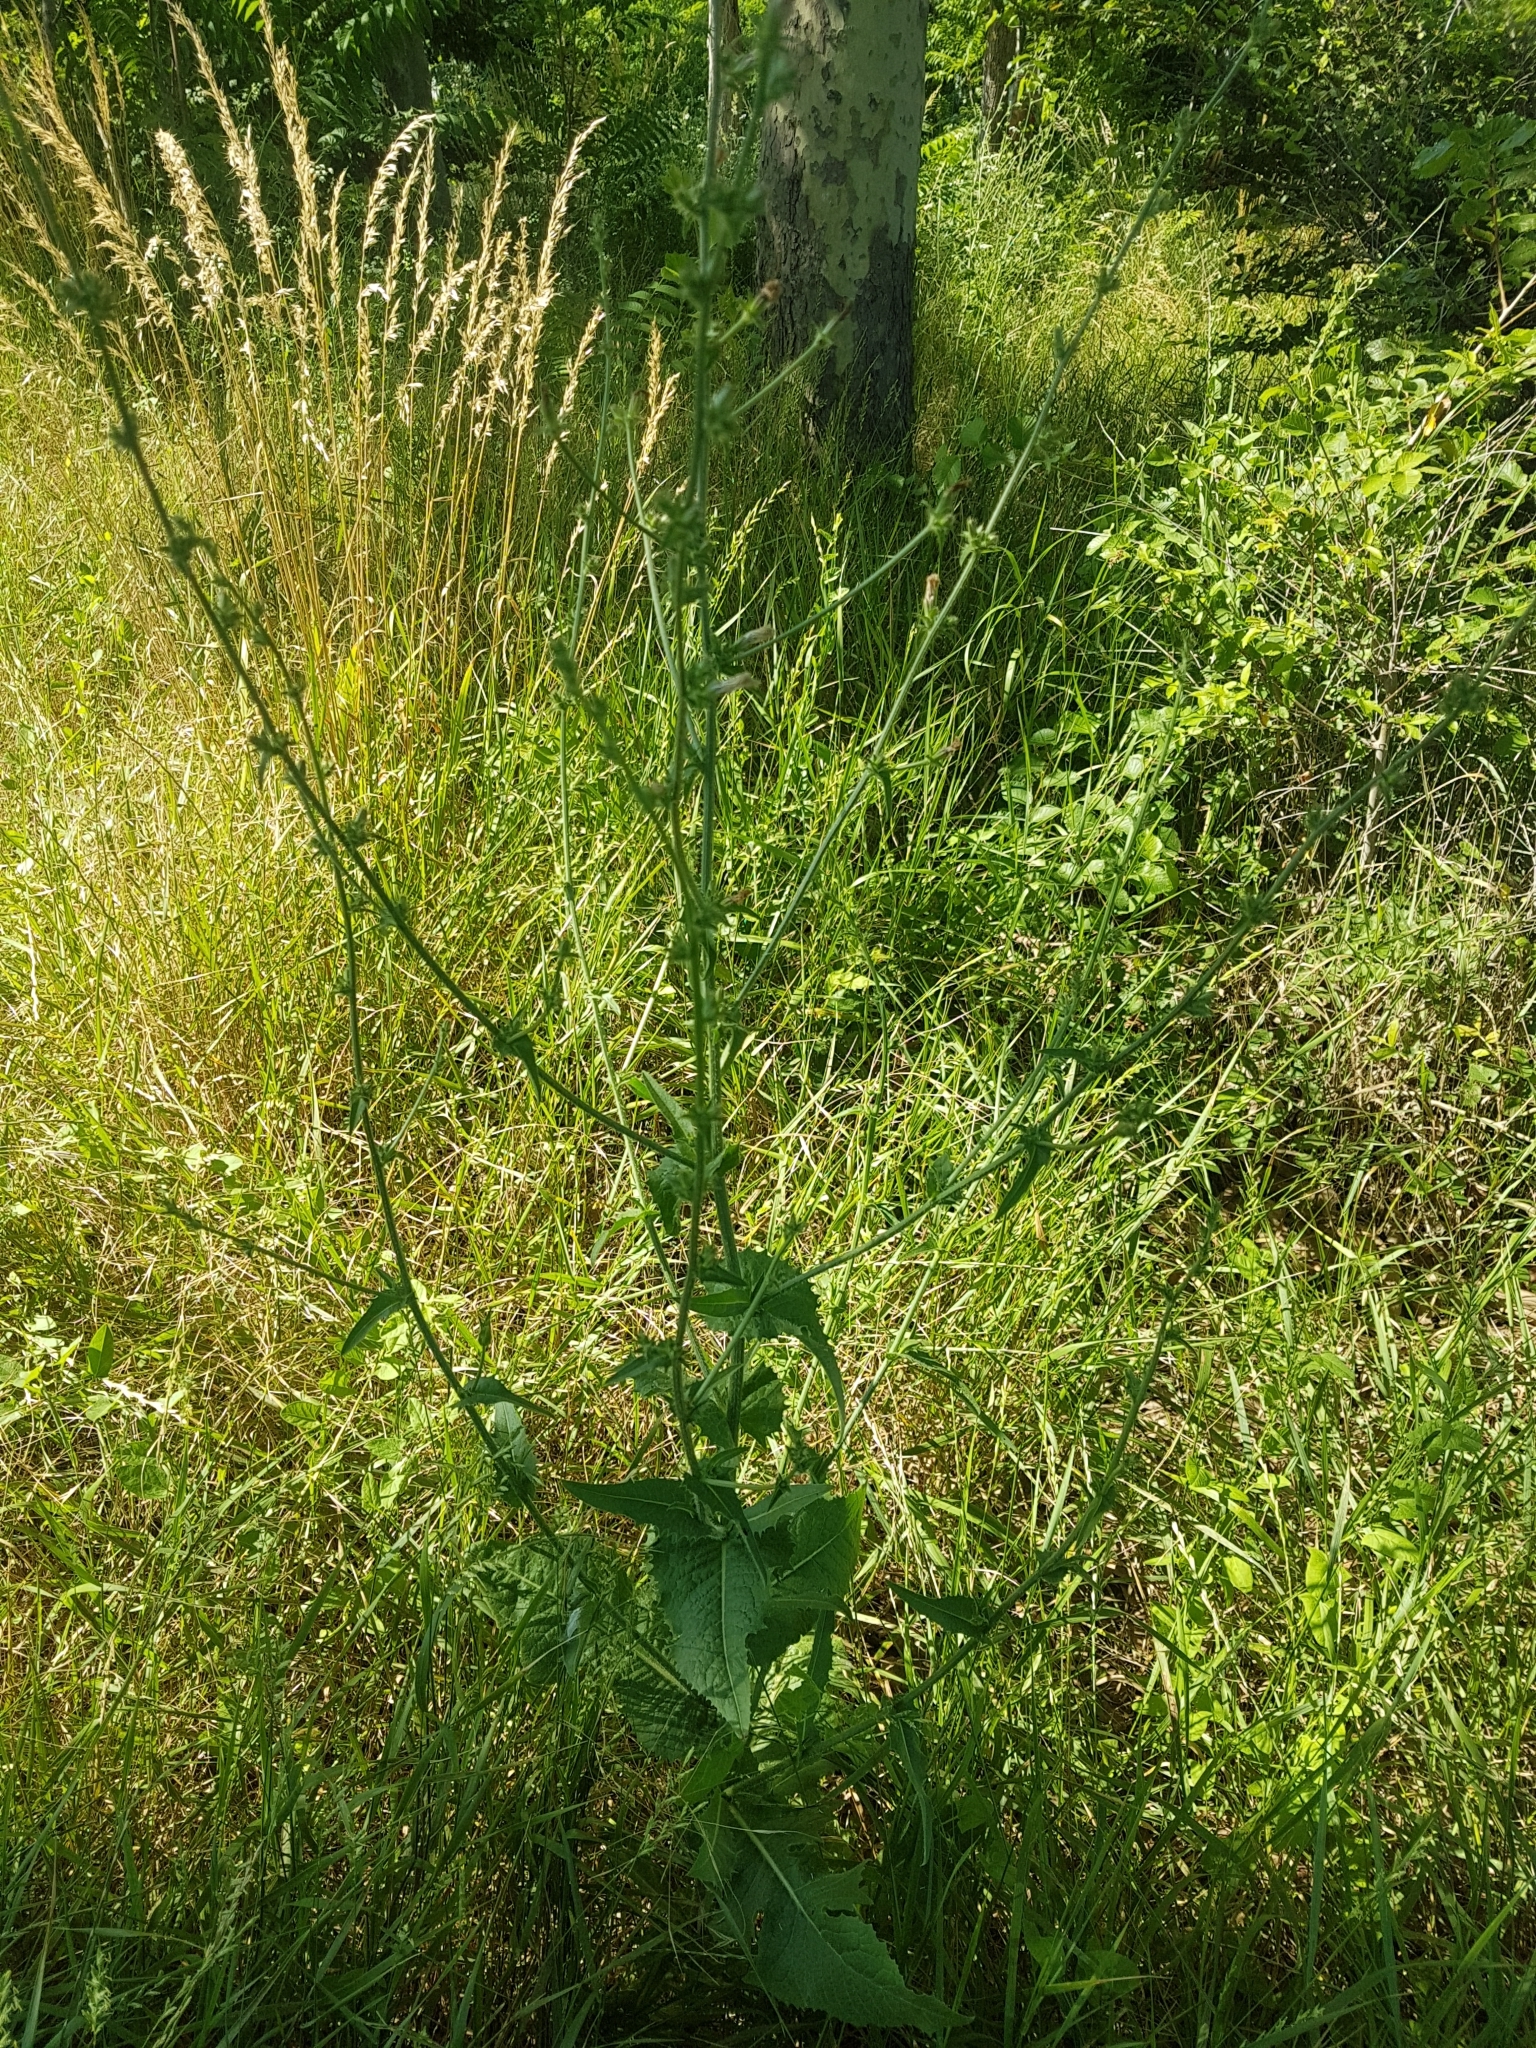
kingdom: Plantae
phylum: Tracheophyta
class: Magnoliopsida
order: Asterales
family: Asteraceae
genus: Cichorium
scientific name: Cichorium intybus
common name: Chicory
